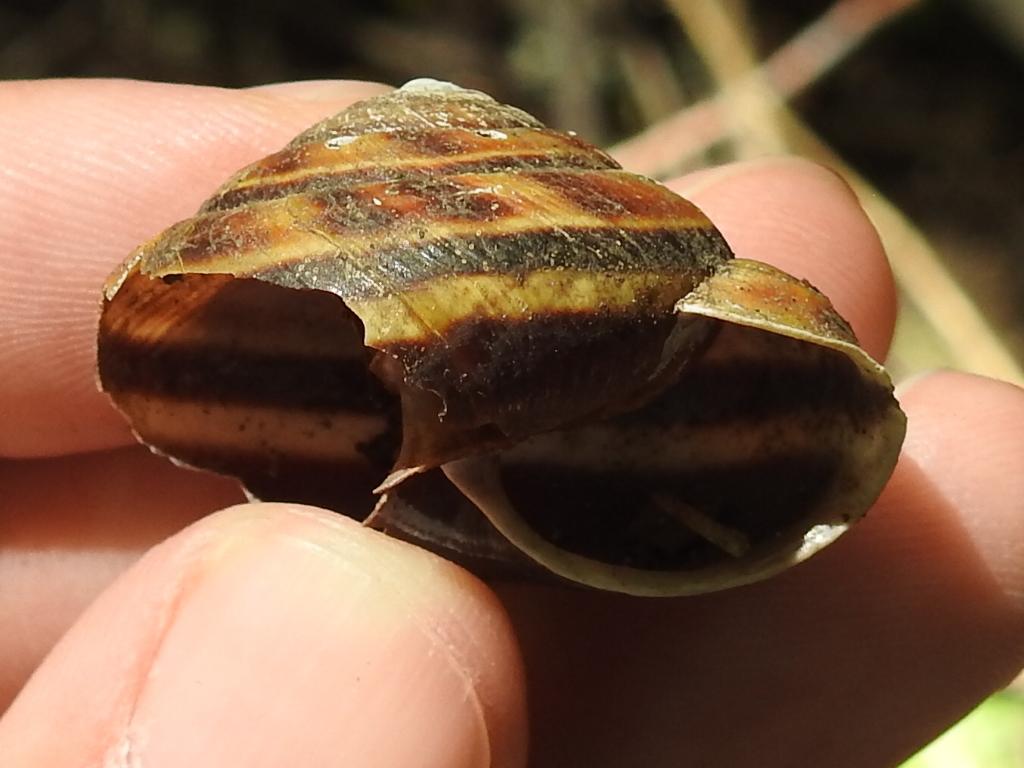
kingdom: Animalia
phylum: Mollusca
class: Gastropoda
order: Stylommatophora
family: Xanthonychidae
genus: Monadenia
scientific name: Monadenia fidelis
